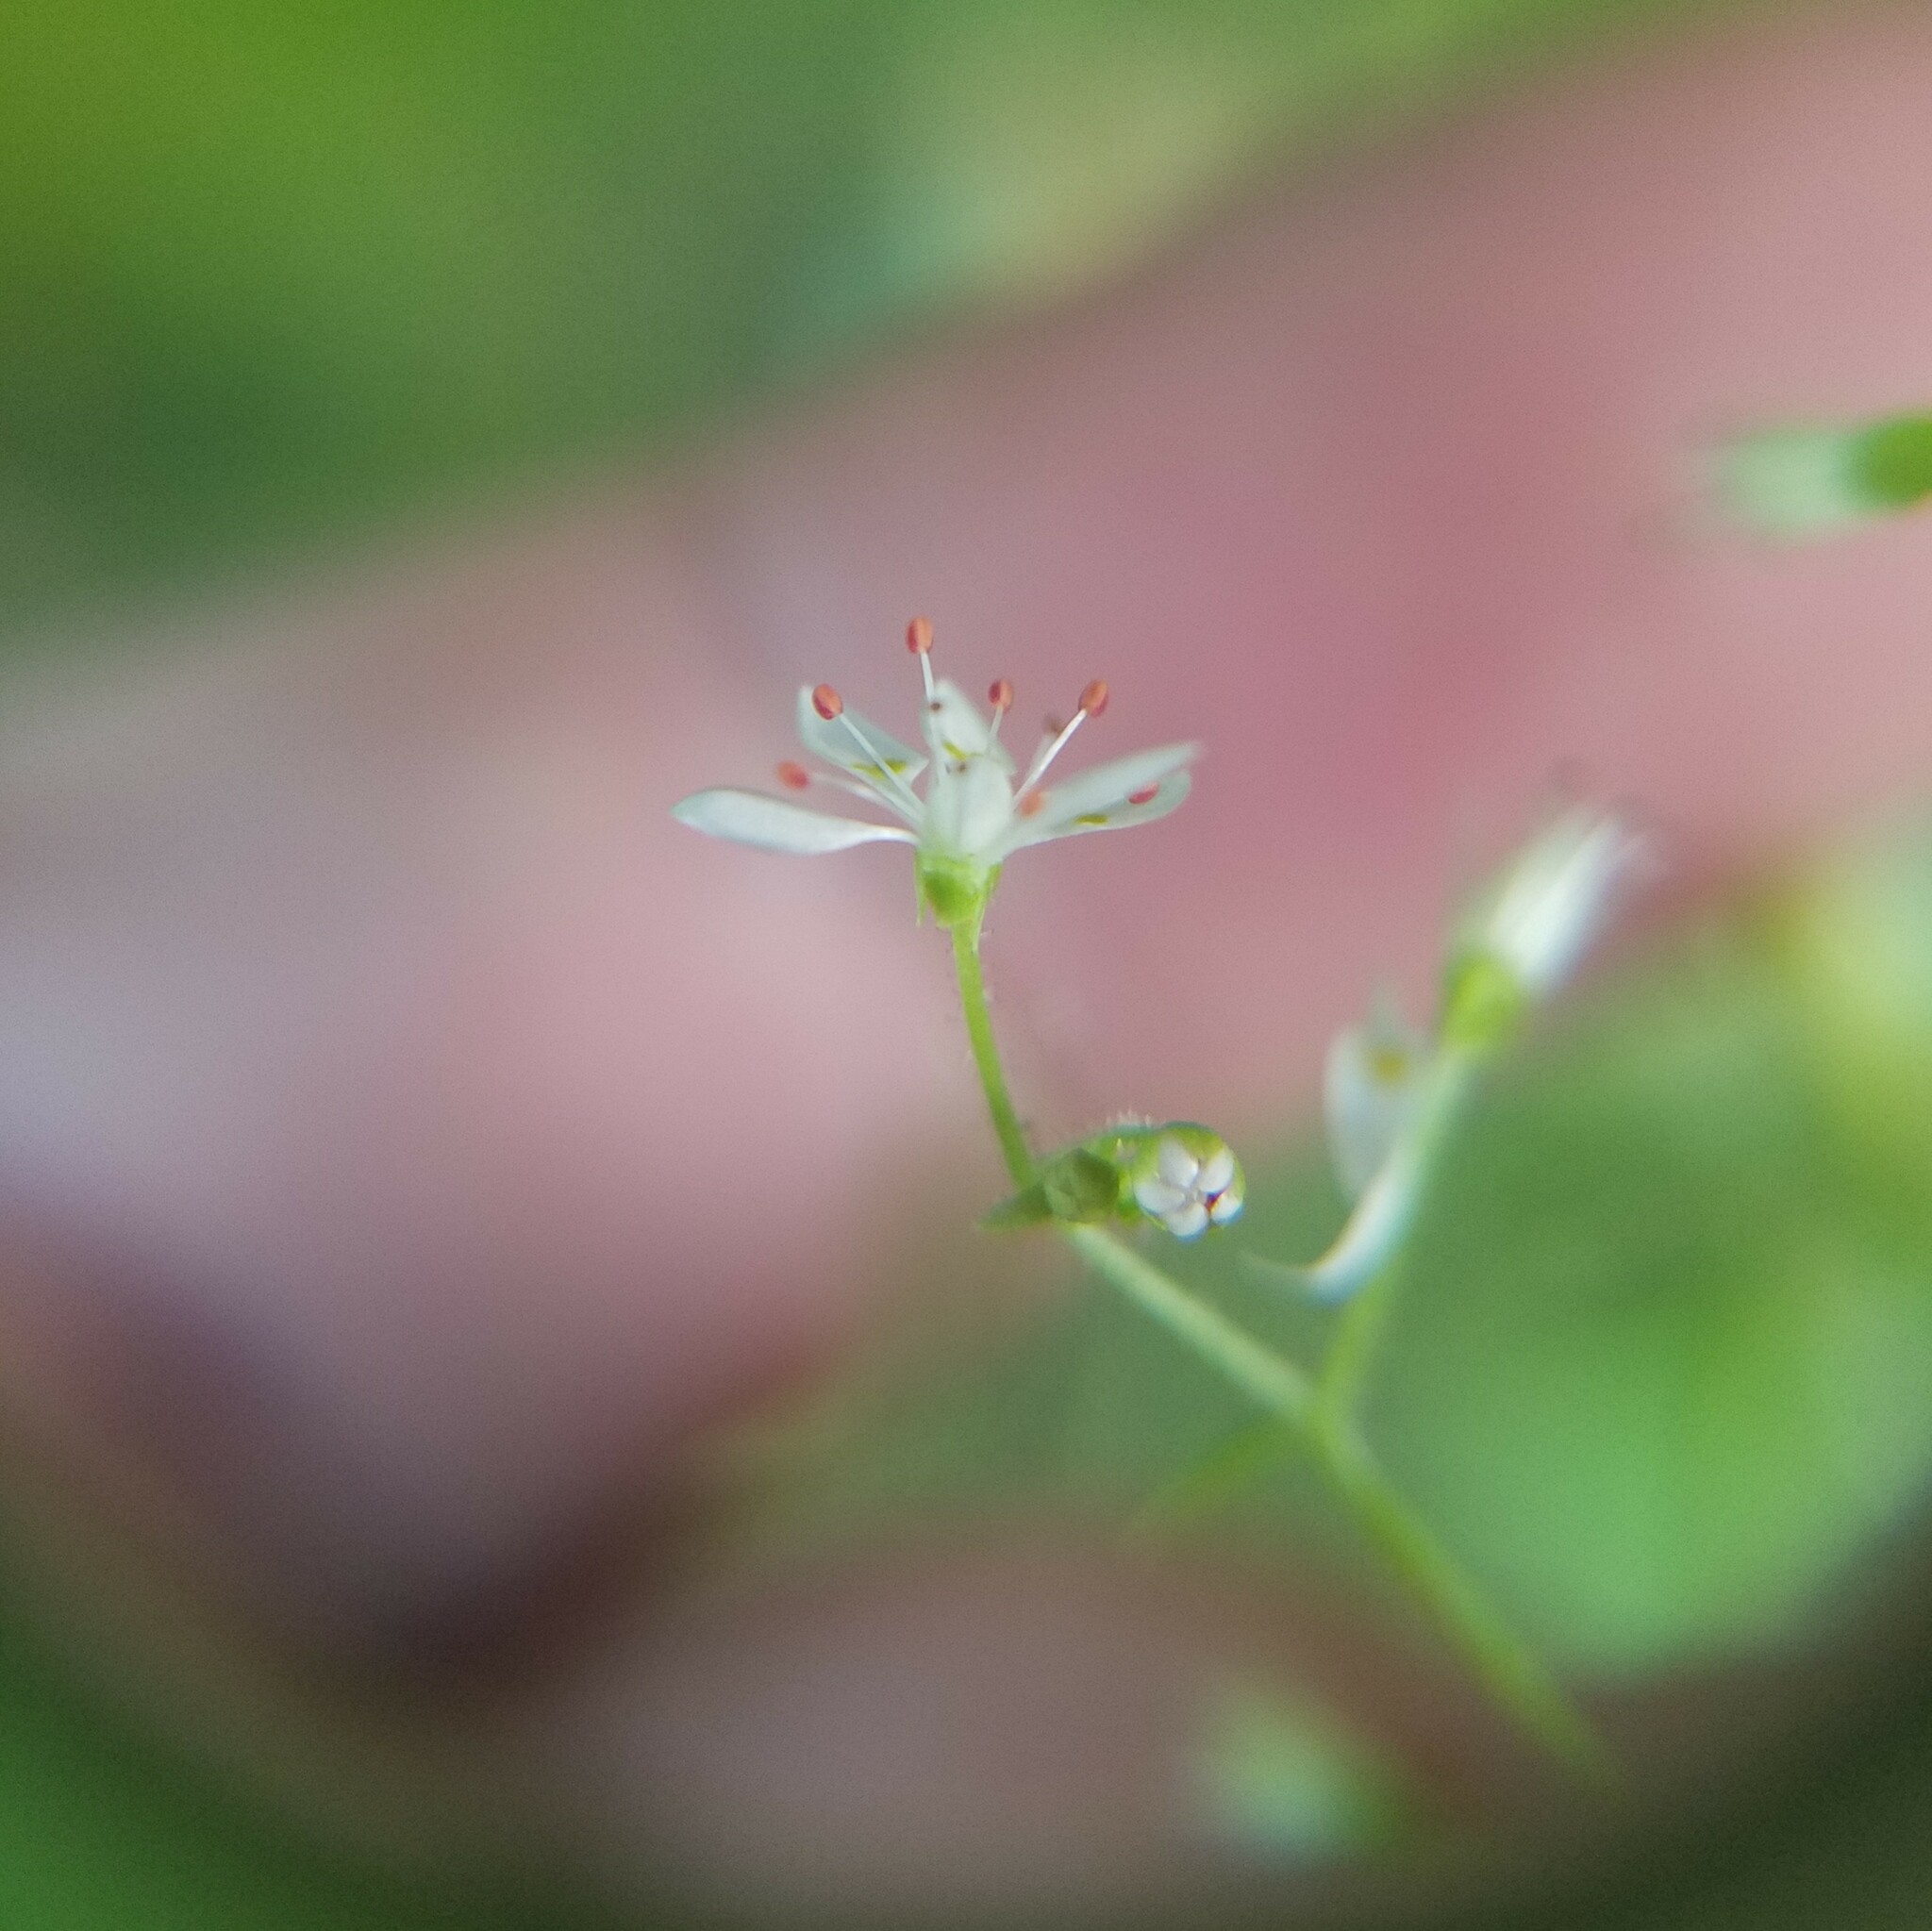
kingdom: Plantae
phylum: Tracheophyta
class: Magnoliopsida
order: Saxifragales
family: Saxifragaceae
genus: Micranthes
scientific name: Micranthes petiolaris
